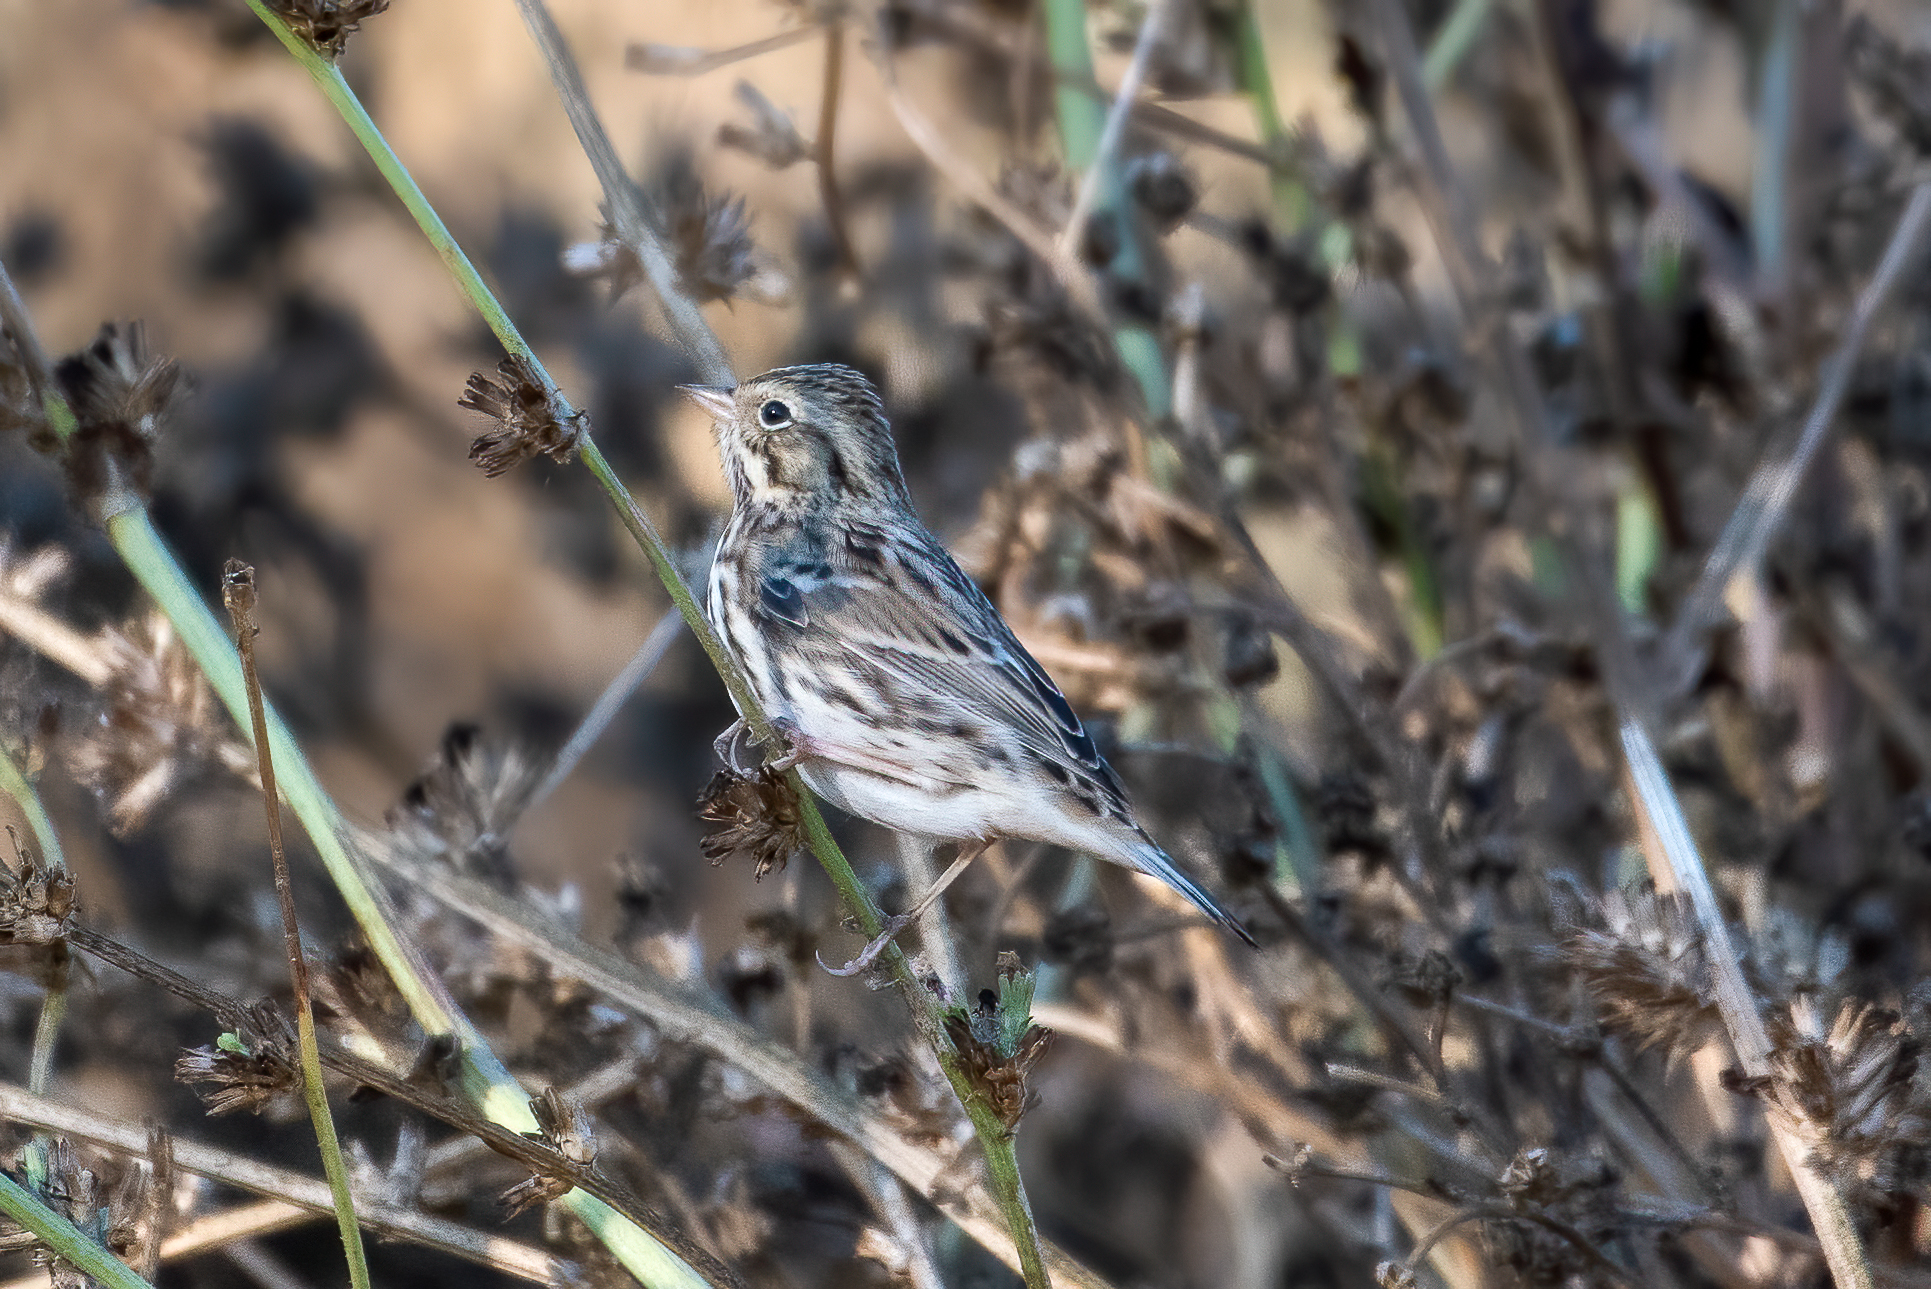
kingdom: Animalia
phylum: Chordata
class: Aves
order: Passeriformes
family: Passerellidae
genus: Passerculus
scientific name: Passerculus sandwichensis
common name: Savannah sparrow
